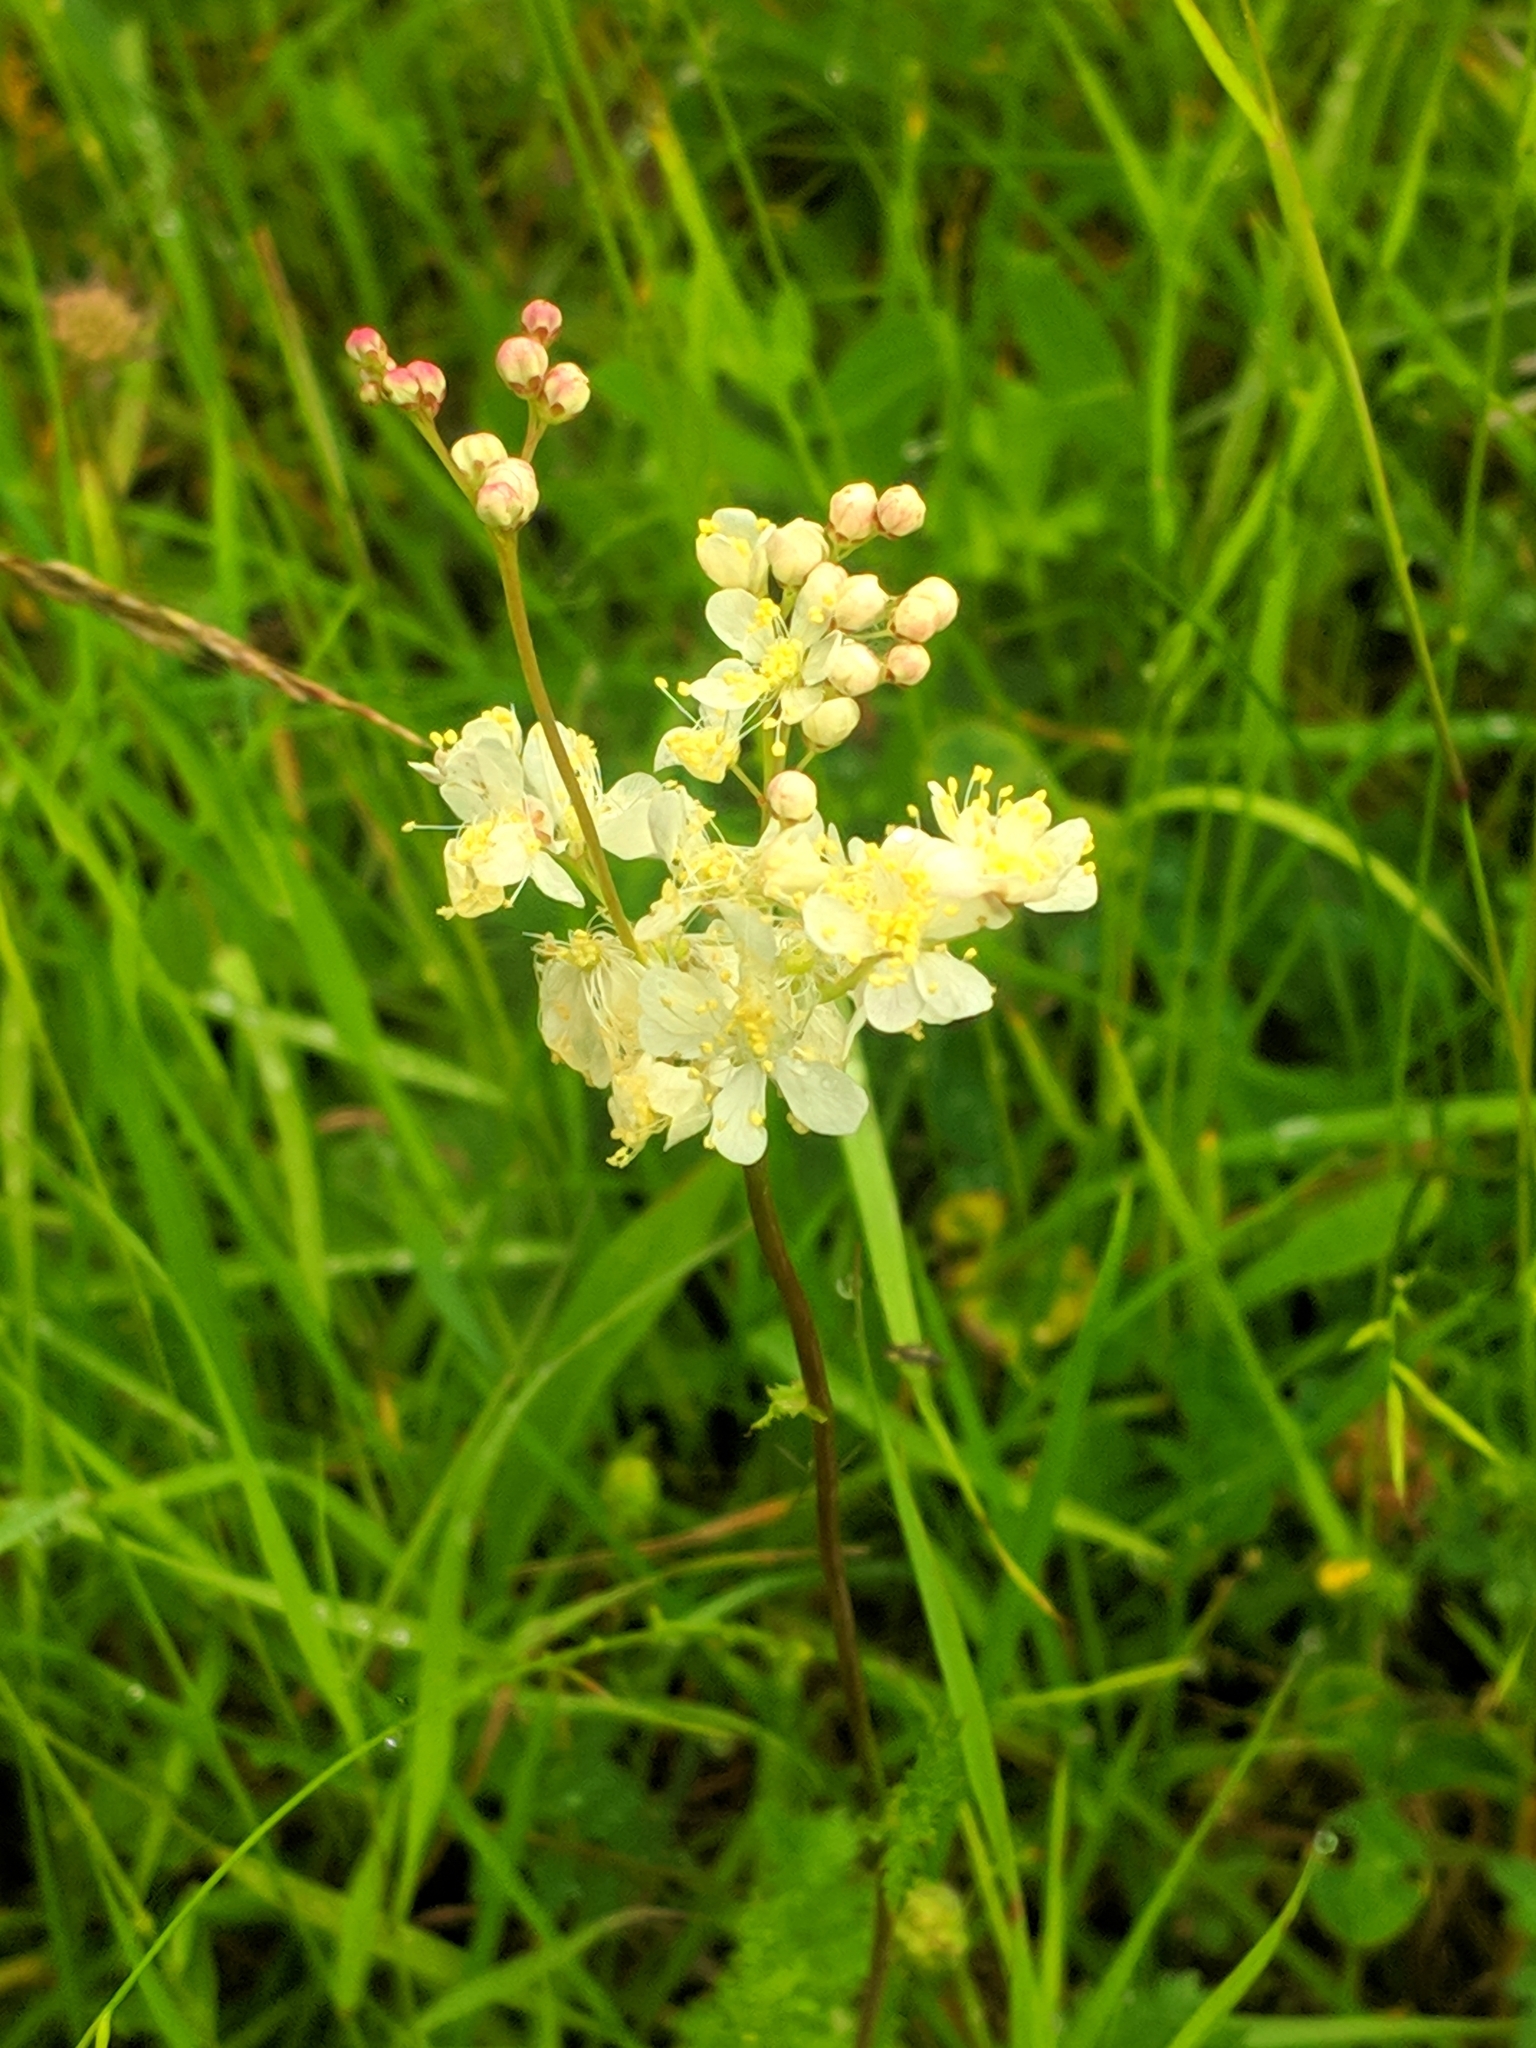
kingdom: Plantae
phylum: Tracheophyta
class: Magnoliopsida
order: Rosales
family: Rosaceae
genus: Filipendula
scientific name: Filipendula vulgaris
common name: Dropwort
